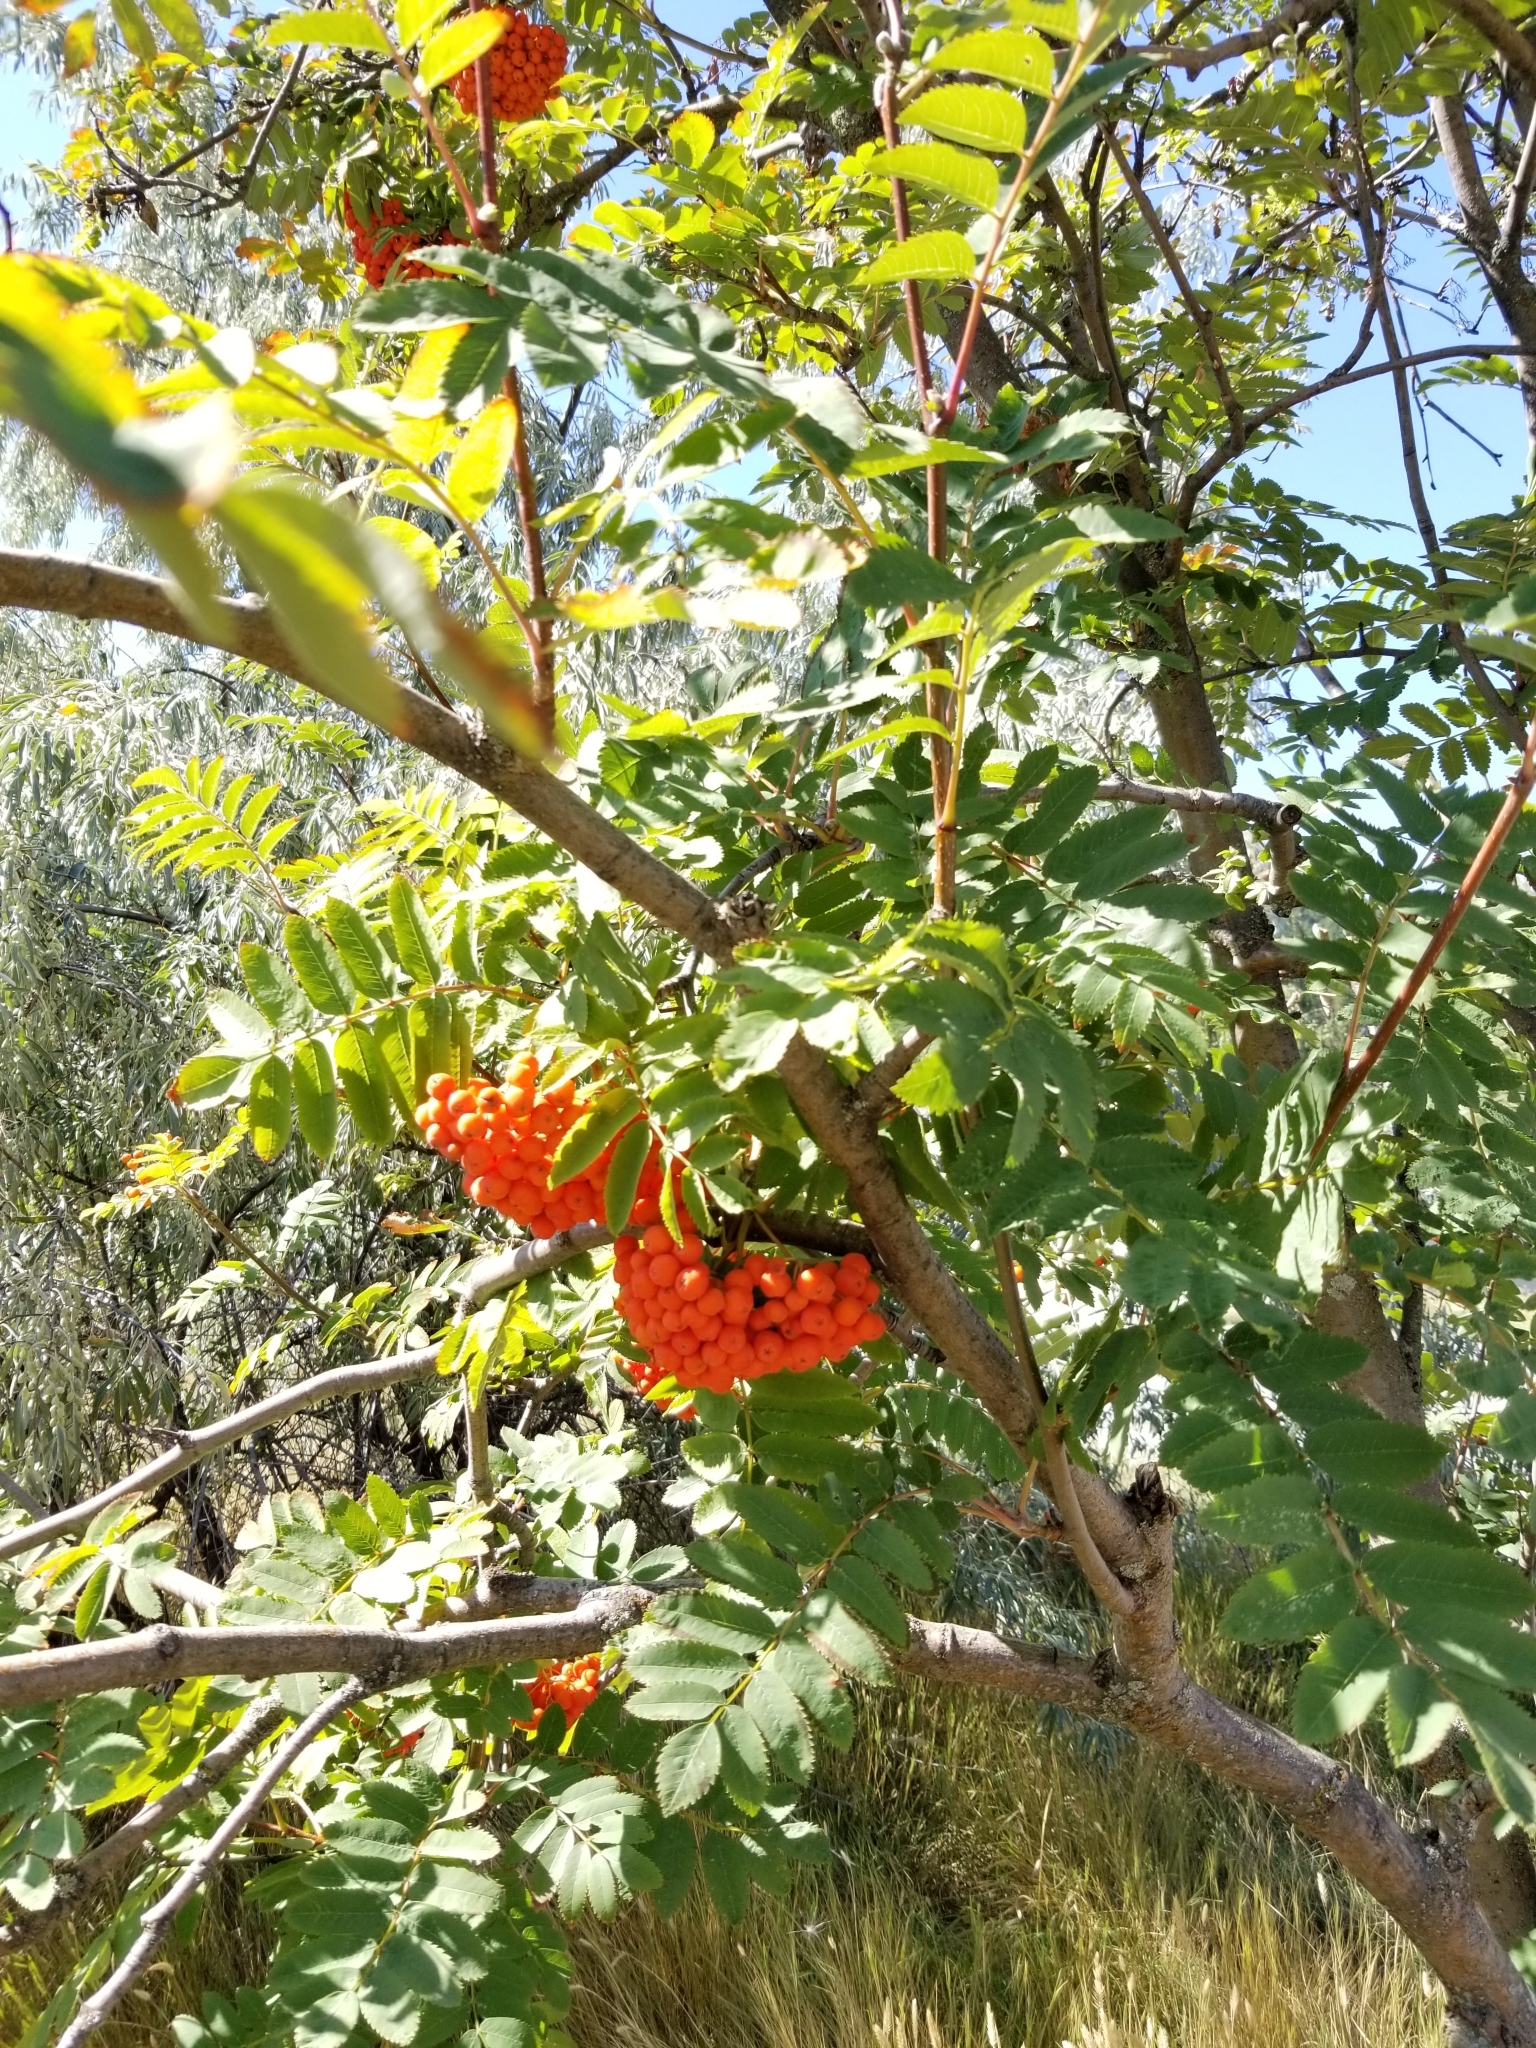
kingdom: Plantae
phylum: Tracheophyta
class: Magnoliopsida
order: Rosales
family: Rosaceae
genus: Sorbus
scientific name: Sorbus aucuparia
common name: Rowan
